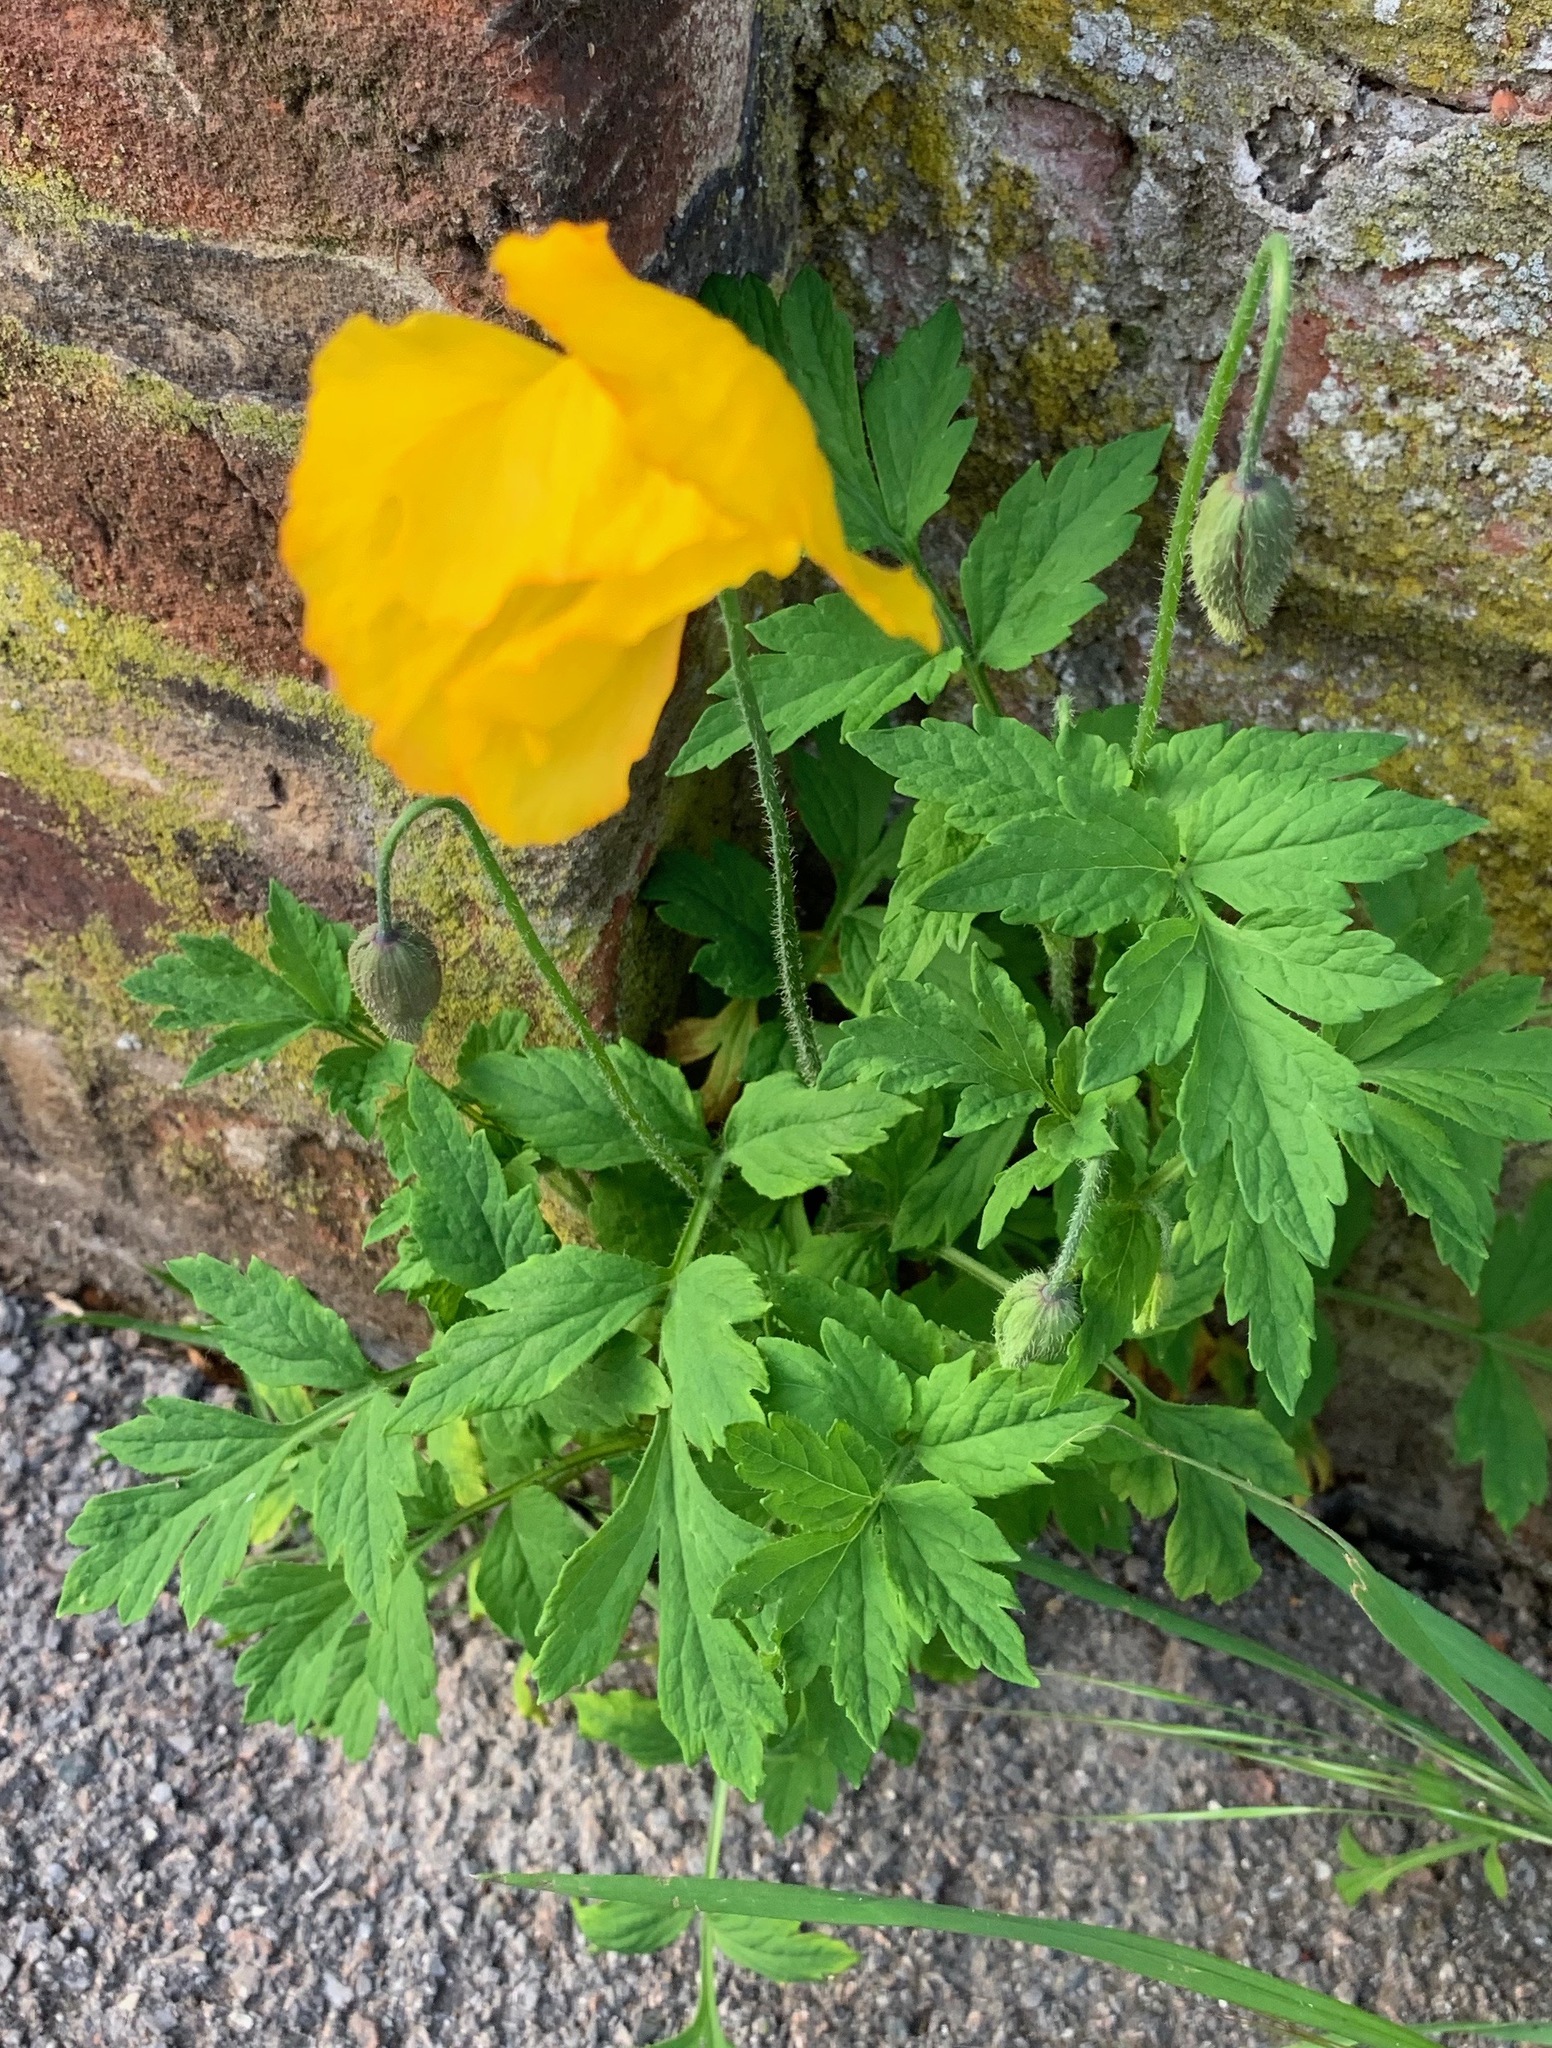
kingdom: Plantae
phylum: Tracheophyta
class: Magnoliopsida
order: Ranunculales
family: Papaveraceae
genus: Papaver
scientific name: Papaver cambricum
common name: Poppy
